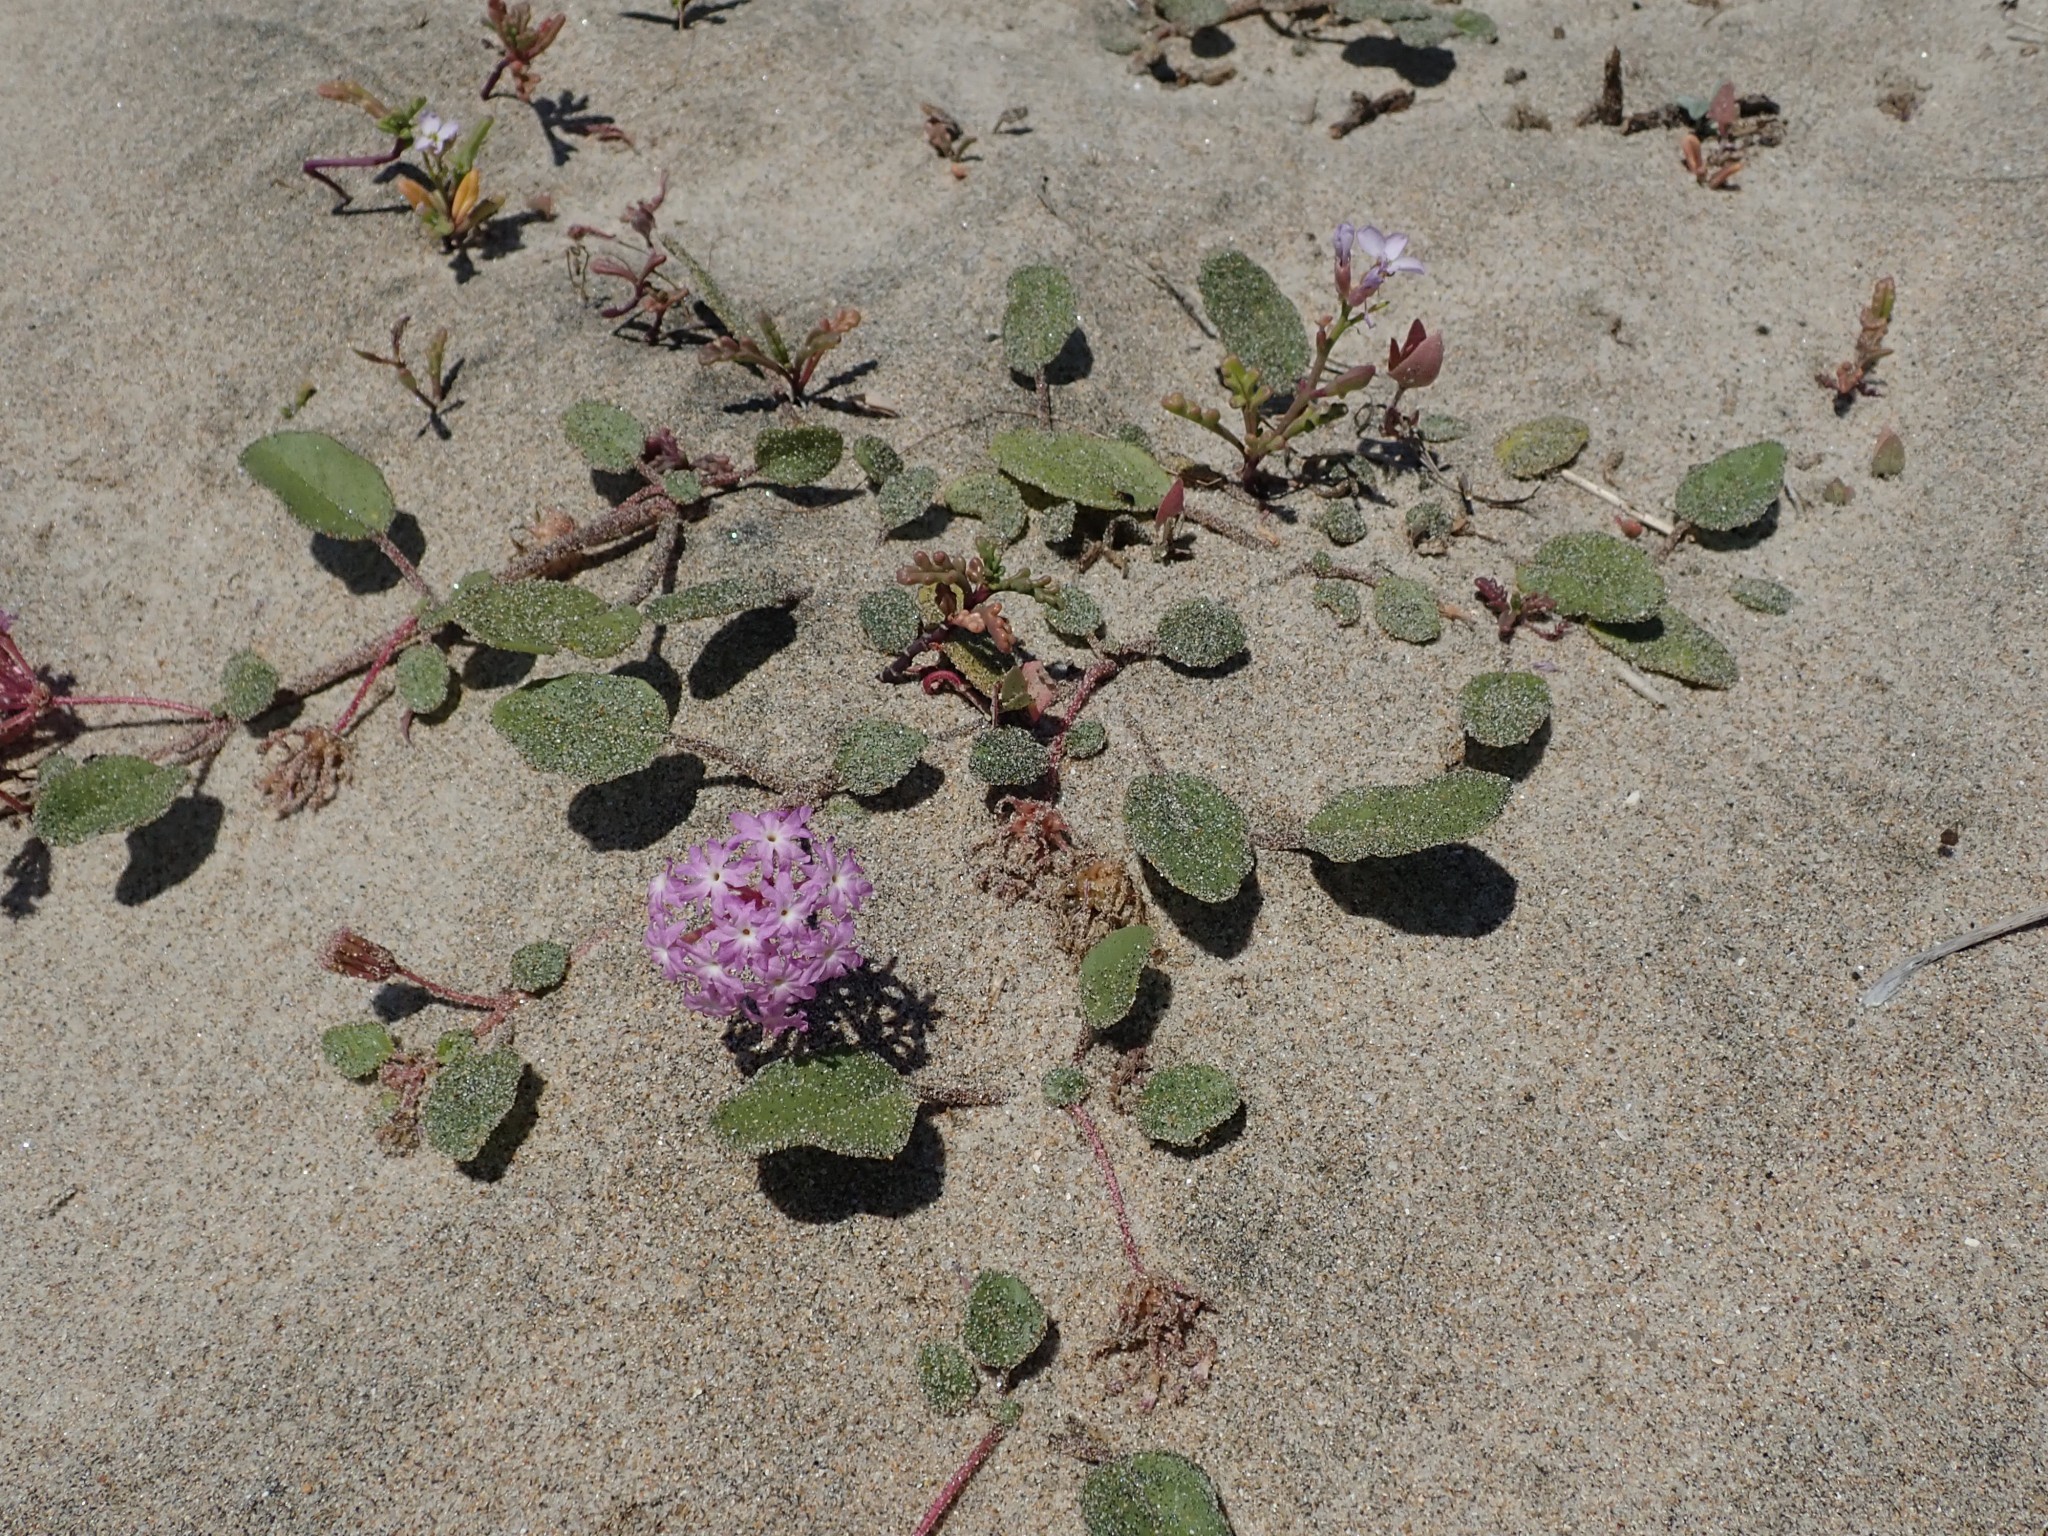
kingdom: Plantae
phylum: Tracheophyta
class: Magnoliopsida
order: Caryophyllales
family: Nyctaginaceae
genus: Abronia
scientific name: Abronia umbellata
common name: Sand-verbena
